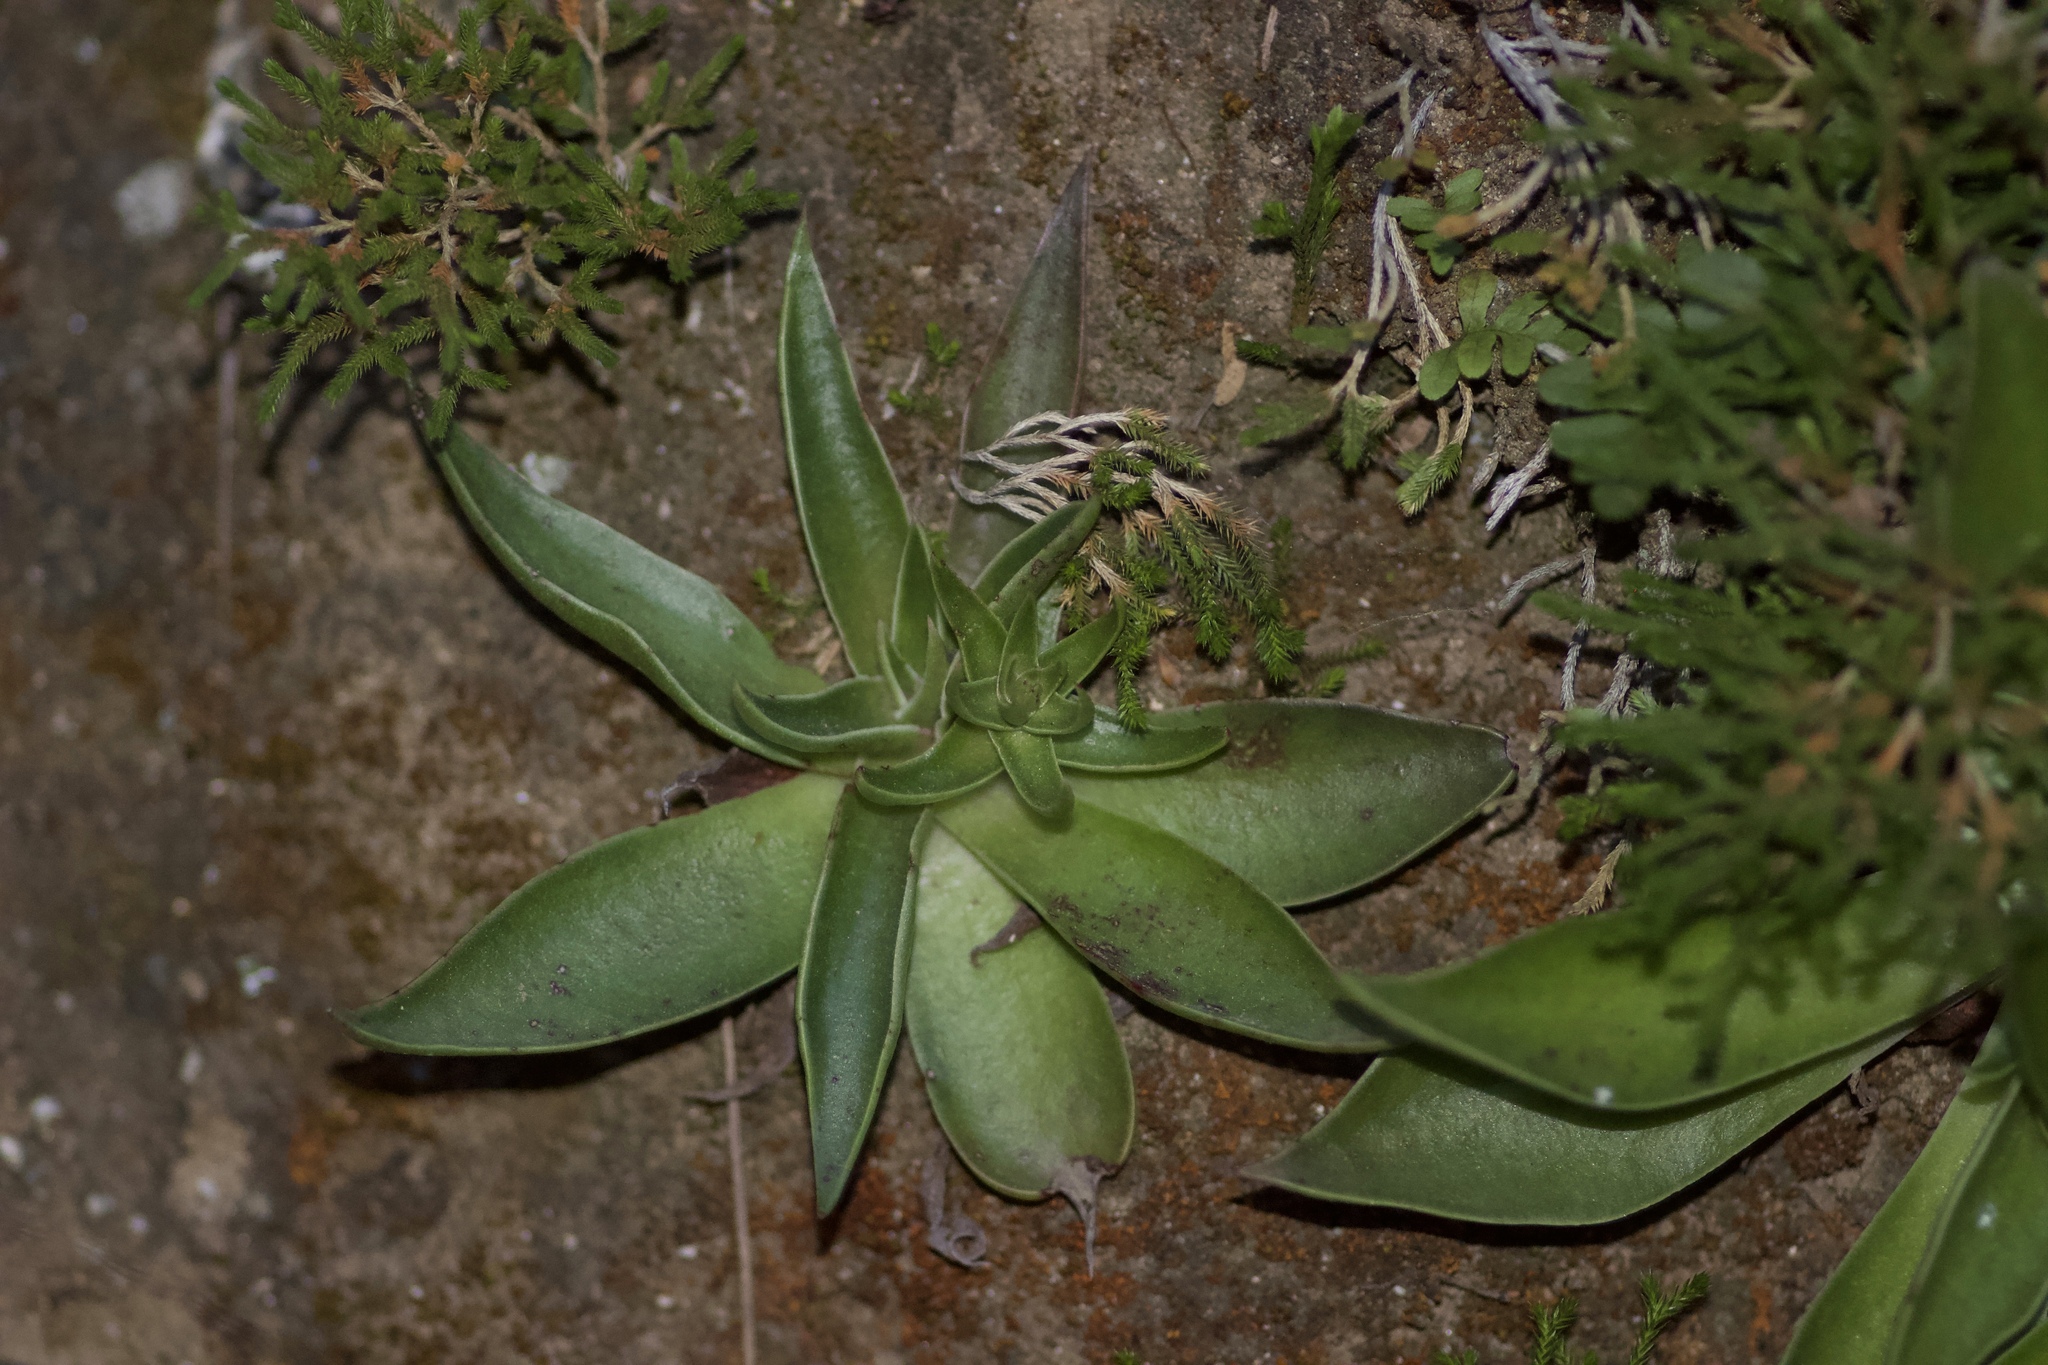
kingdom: Plantae
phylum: Tracheophyta
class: Magnoliopsida
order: Saxifragales
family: Crassulaceae
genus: Dudleya
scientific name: Dudleya lanceolata
